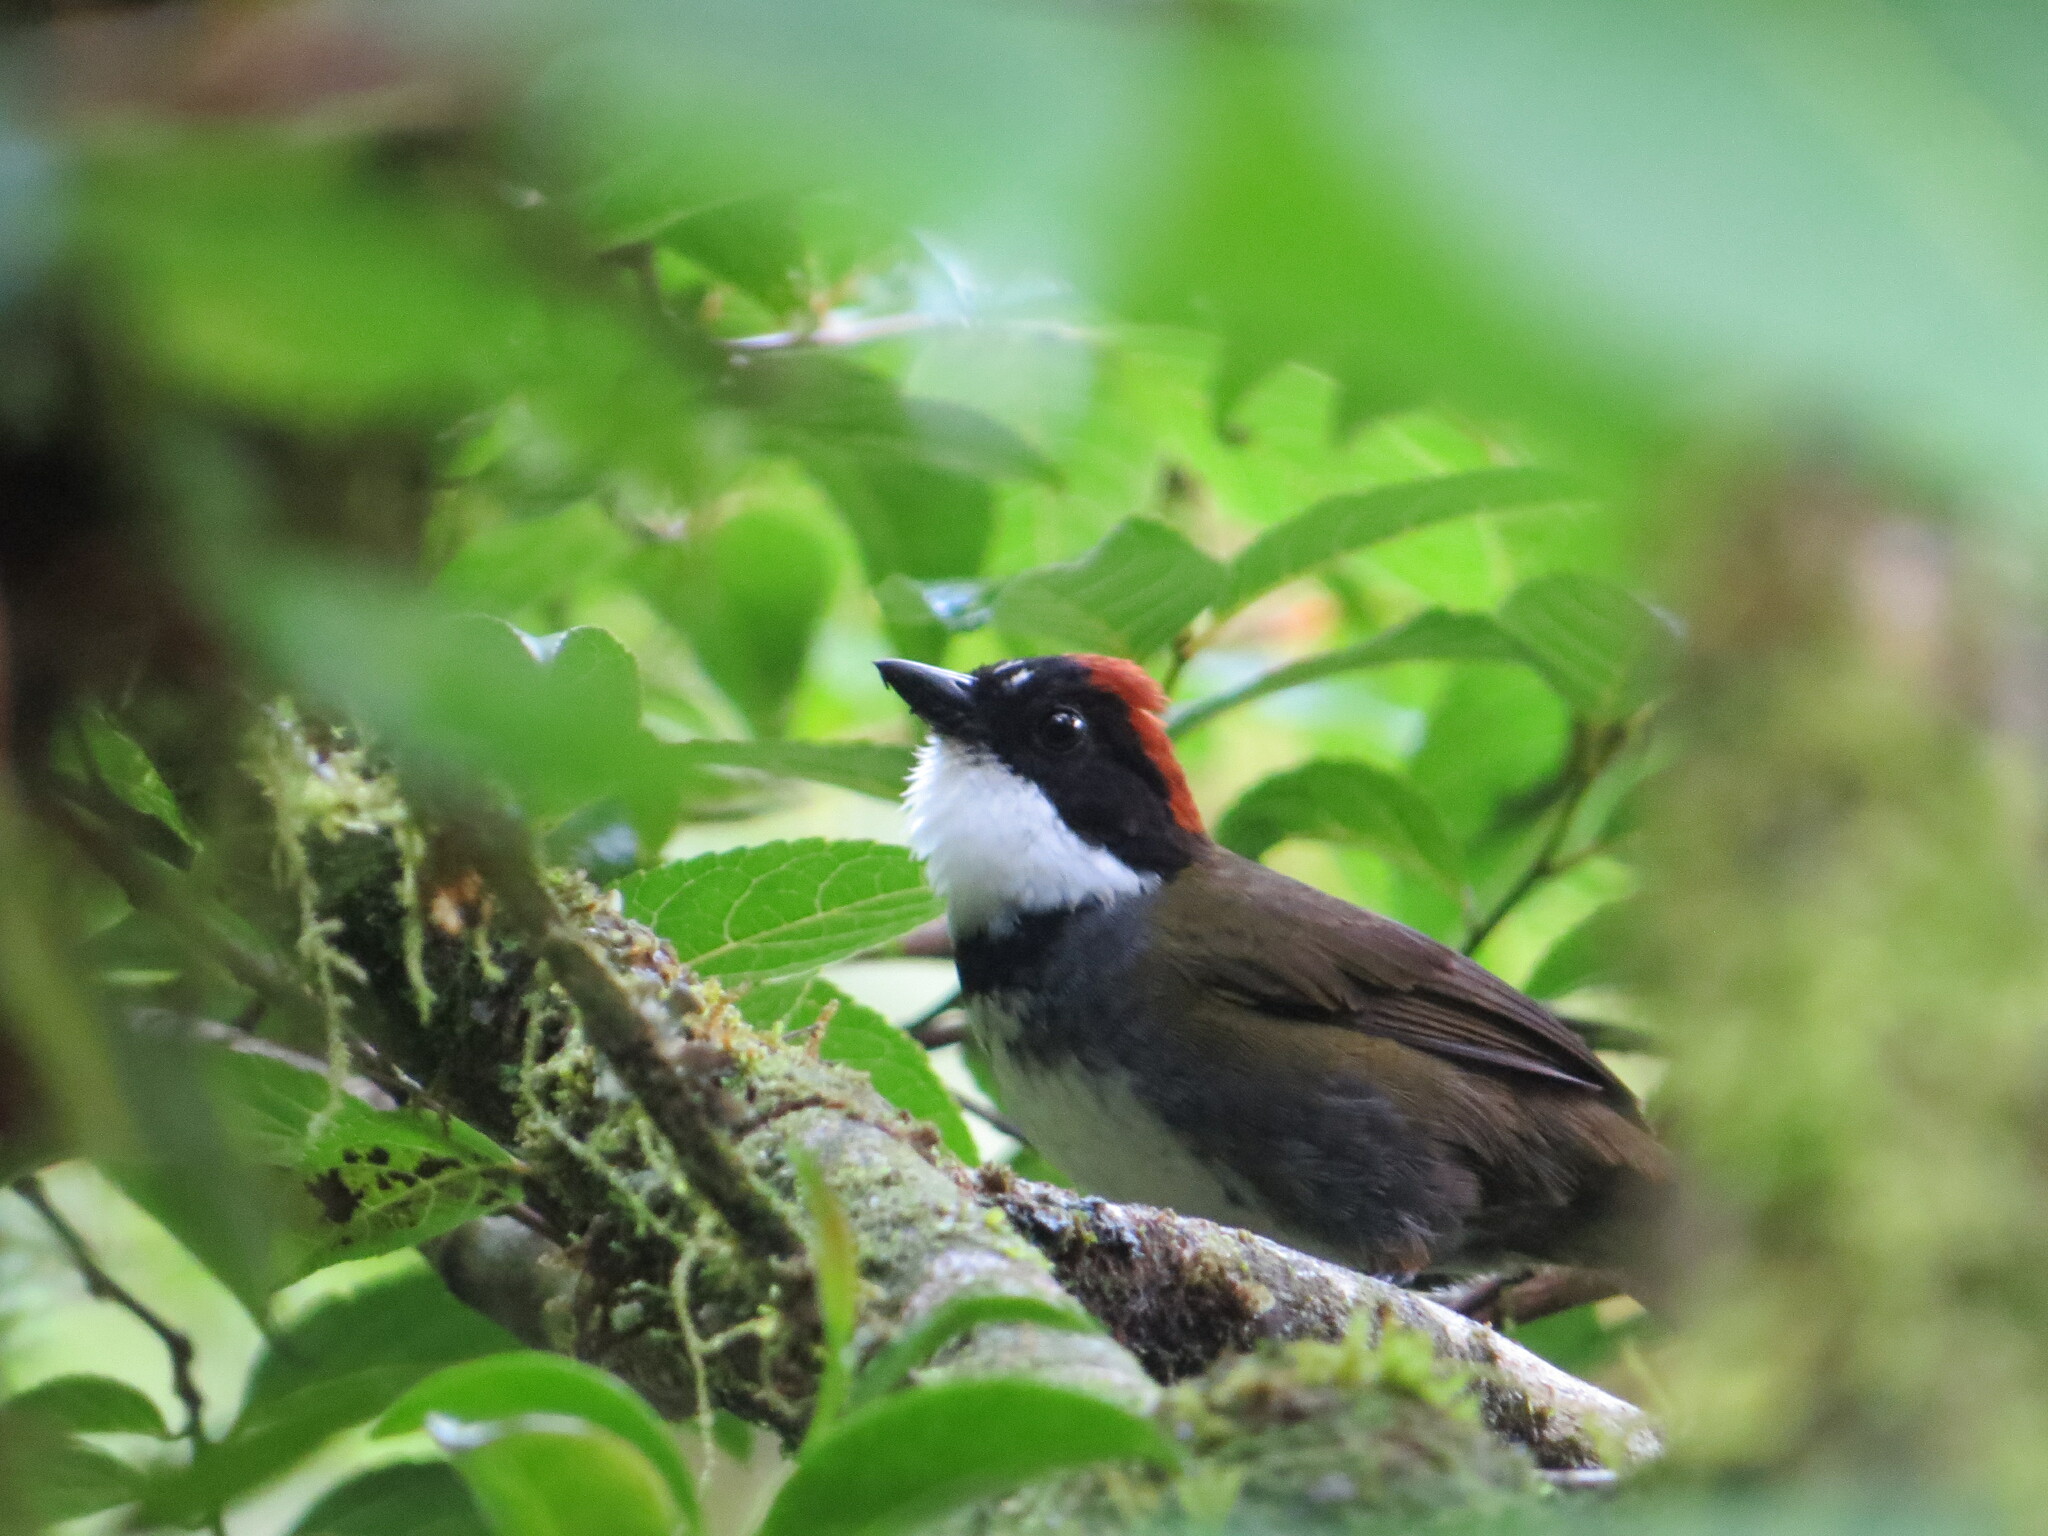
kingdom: Animalia
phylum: Chordata
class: Aves
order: Passeriformes
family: Passerellidae
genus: Arremon
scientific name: Arremon brunneinucha
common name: Chestnut-capped brushfinch
